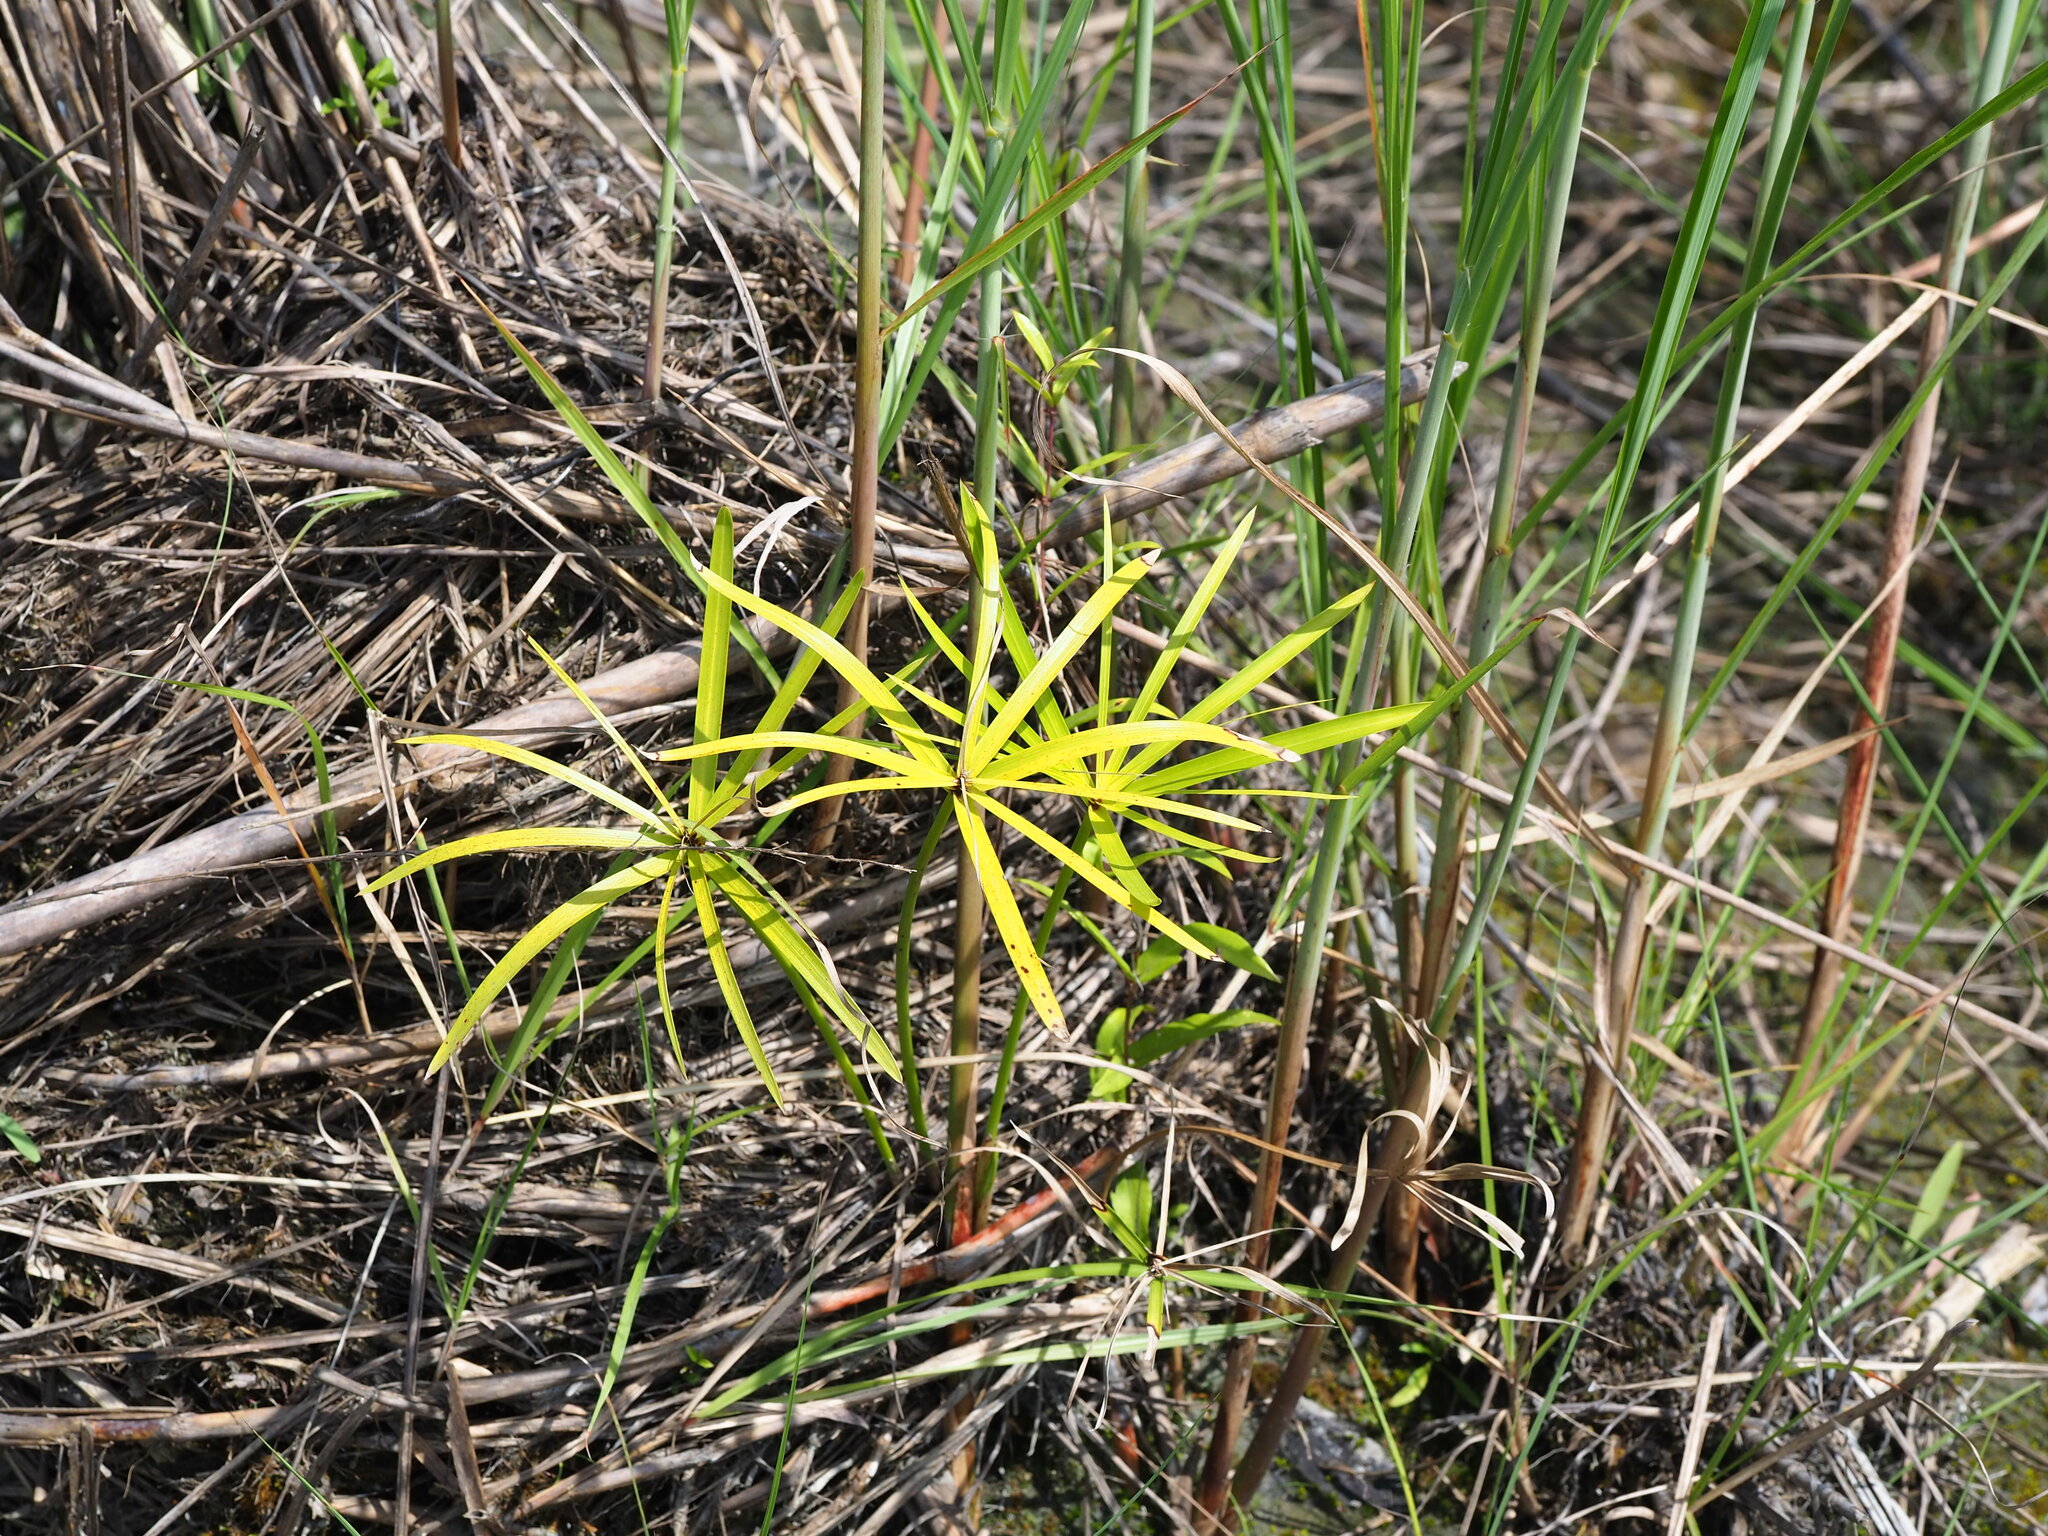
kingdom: Plantae
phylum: Tracheophyta
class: Liliopsida
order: Poales
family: Cyperaceae
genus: Cyperus
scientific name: Cyperus alternifolius
